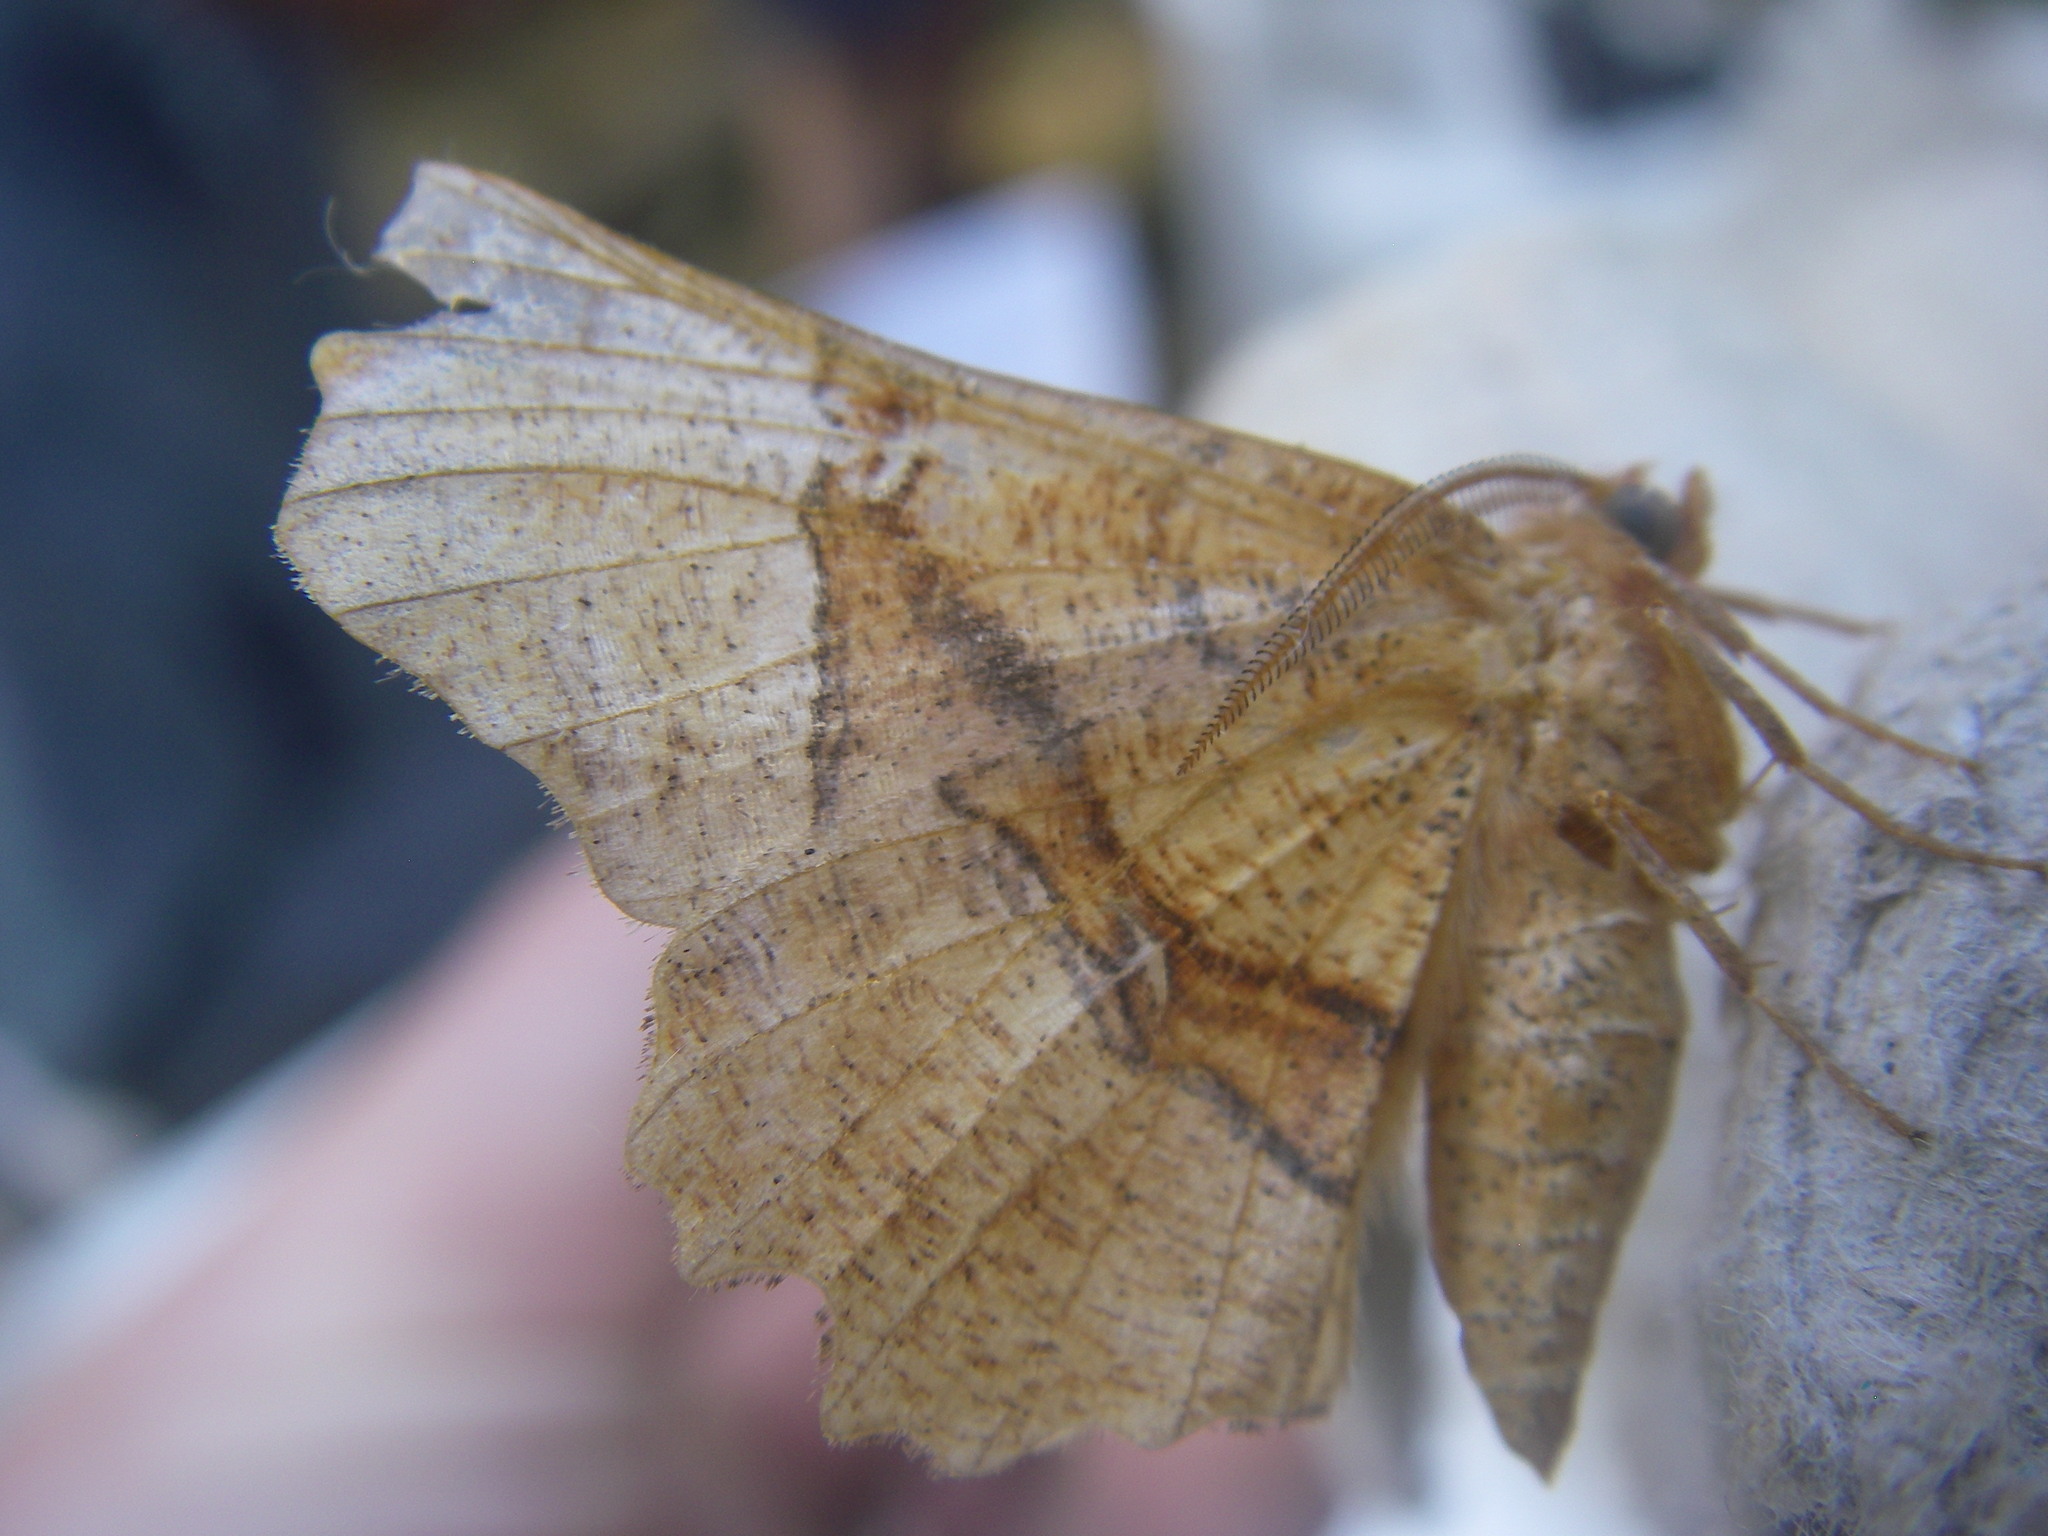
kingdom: Animalia
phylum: Arthropoda
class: Insecta
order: Lepidoptera
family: Geometridae
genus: Selenia
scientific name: Selenia lunularia
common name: Lunar thorn
